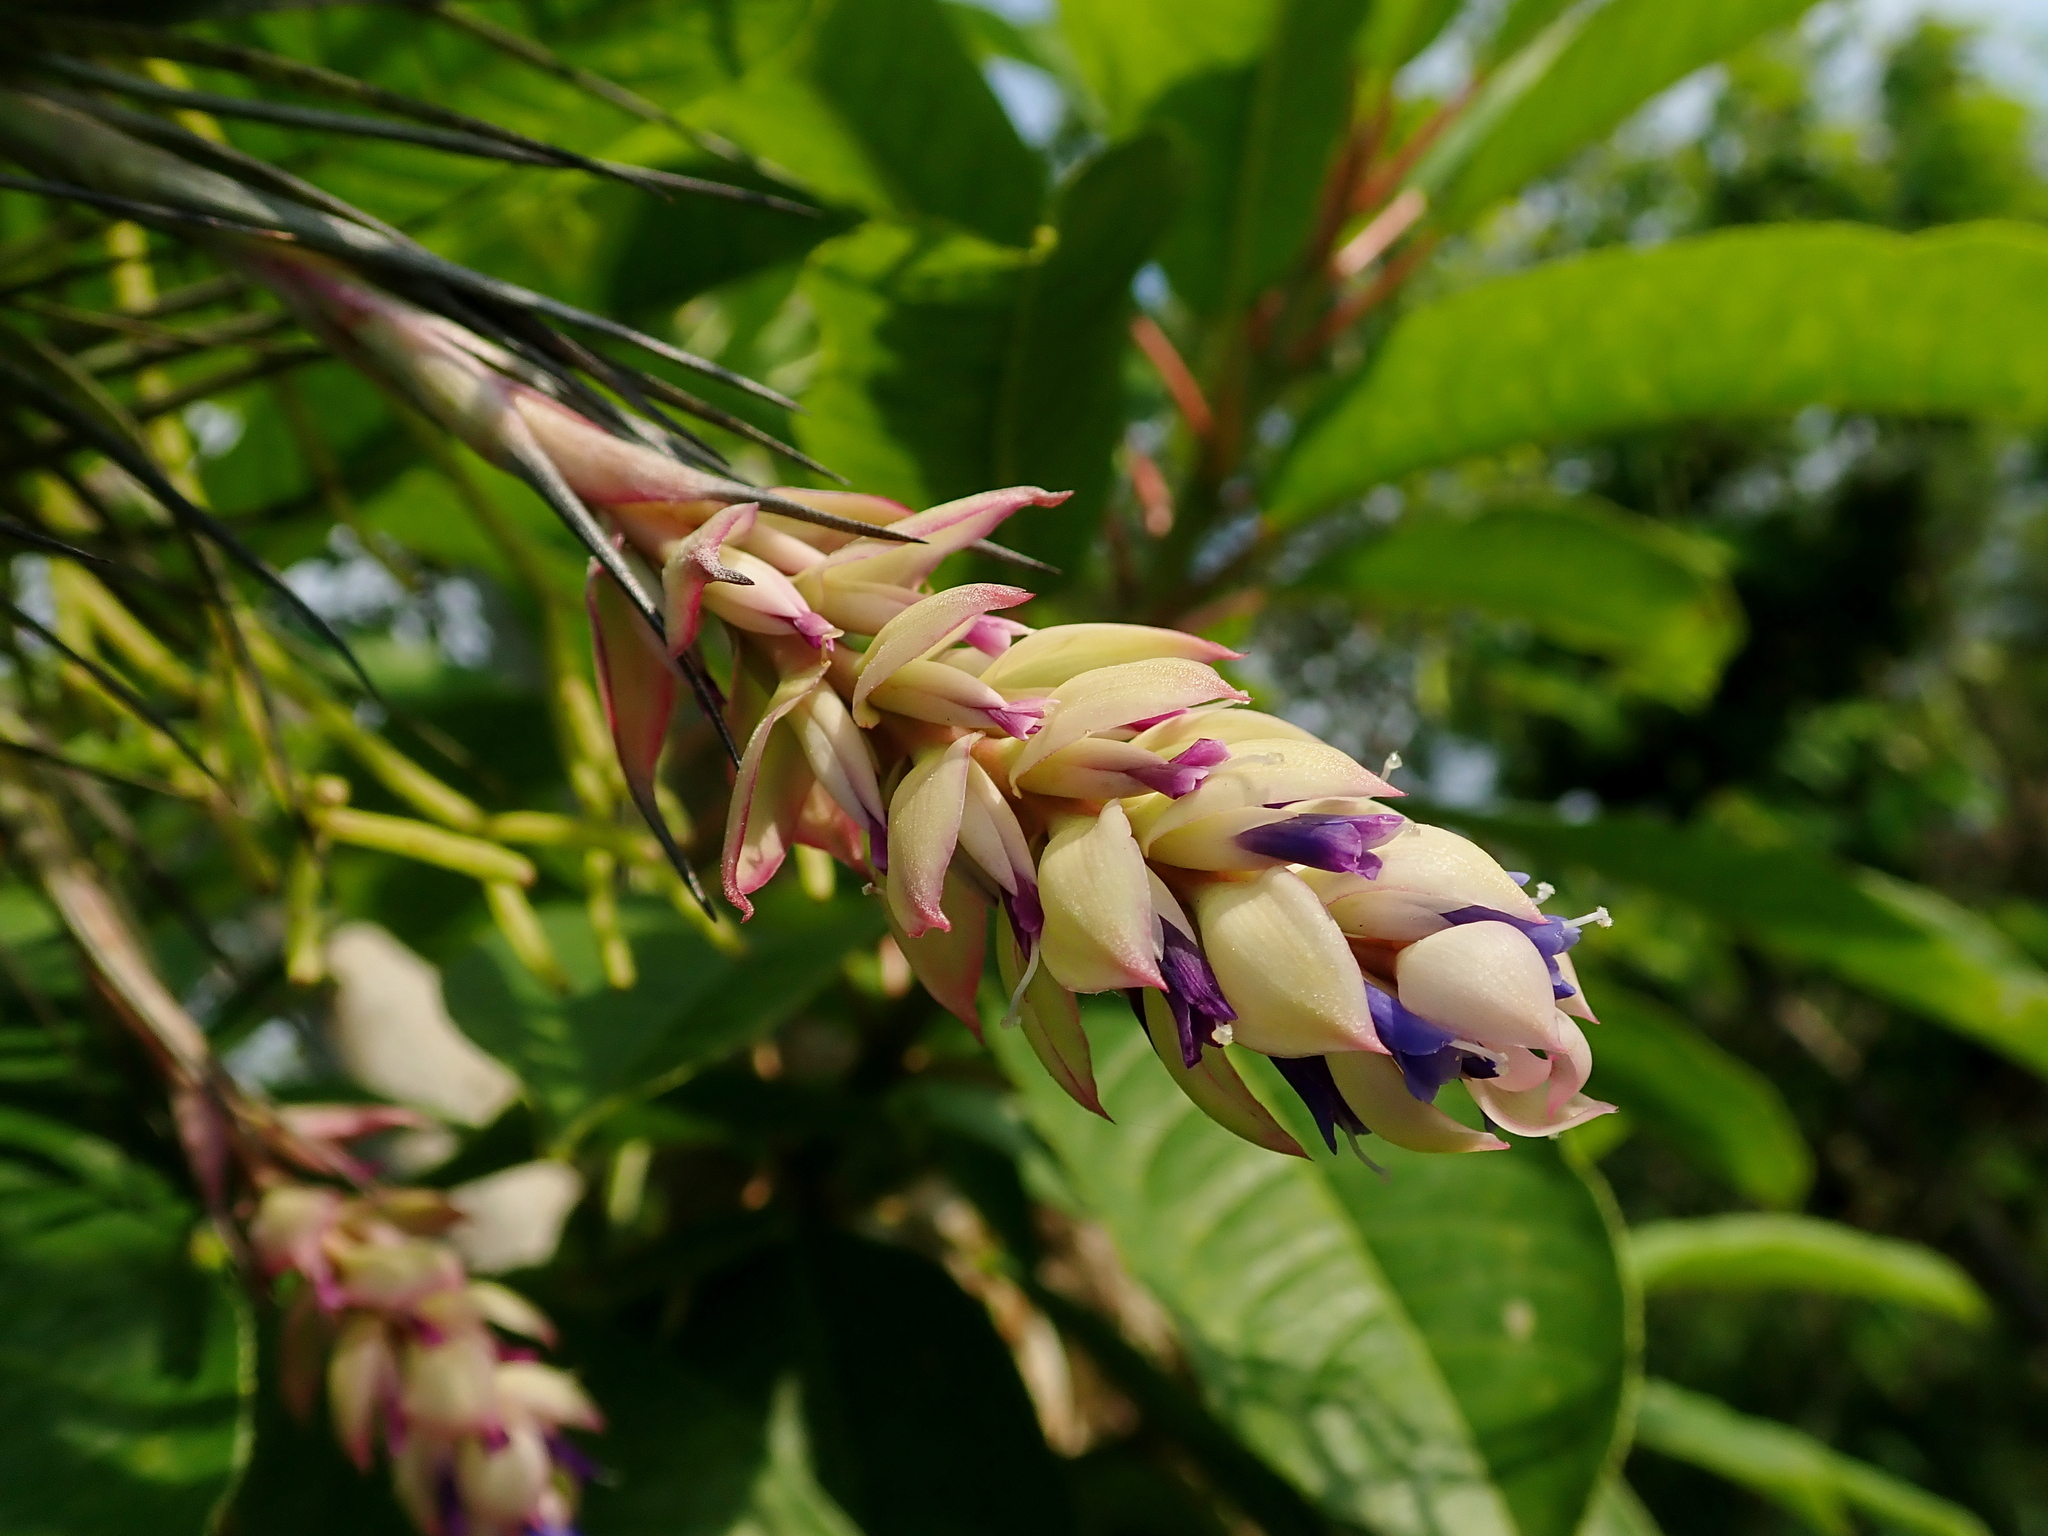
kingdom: Plantae
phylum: Tracheophyta
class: Liliopsida
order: Poales
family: Bromeliaceae
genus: Tillandsia
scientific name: Tillandsia stricta
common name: Airplant
